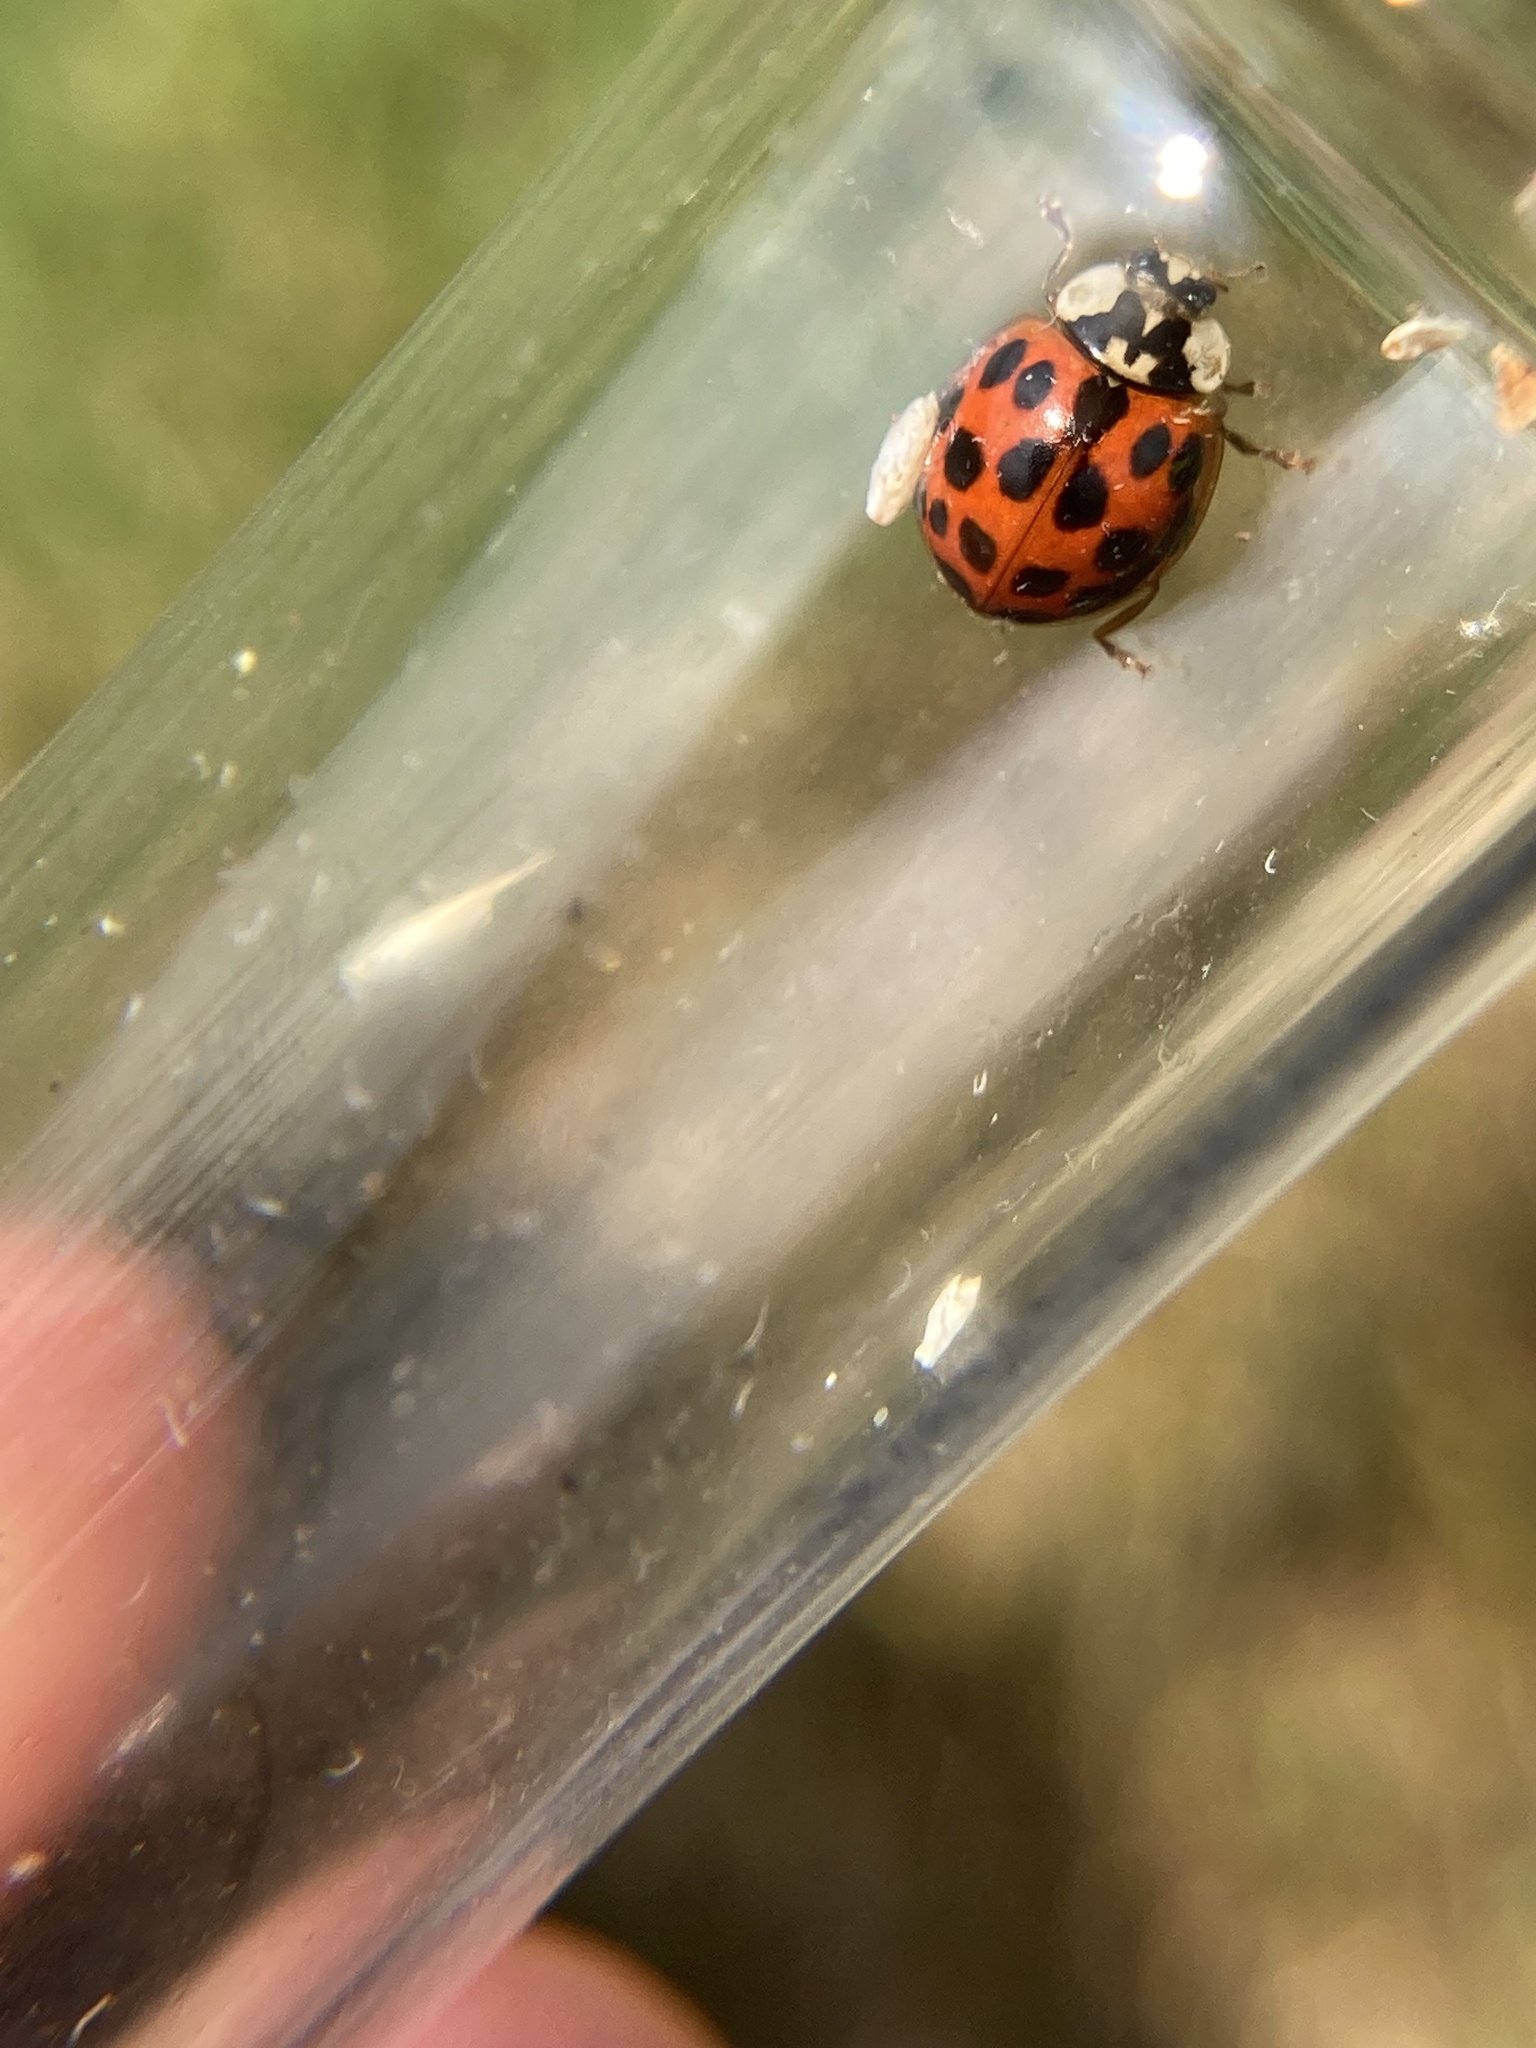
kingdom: Animalia
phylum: Arthropoda
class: Insecta
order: Coleoptera
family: Coccinellidae
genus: Harmonia
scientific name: Harmonia axyridis
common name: Harlequin ladybird
